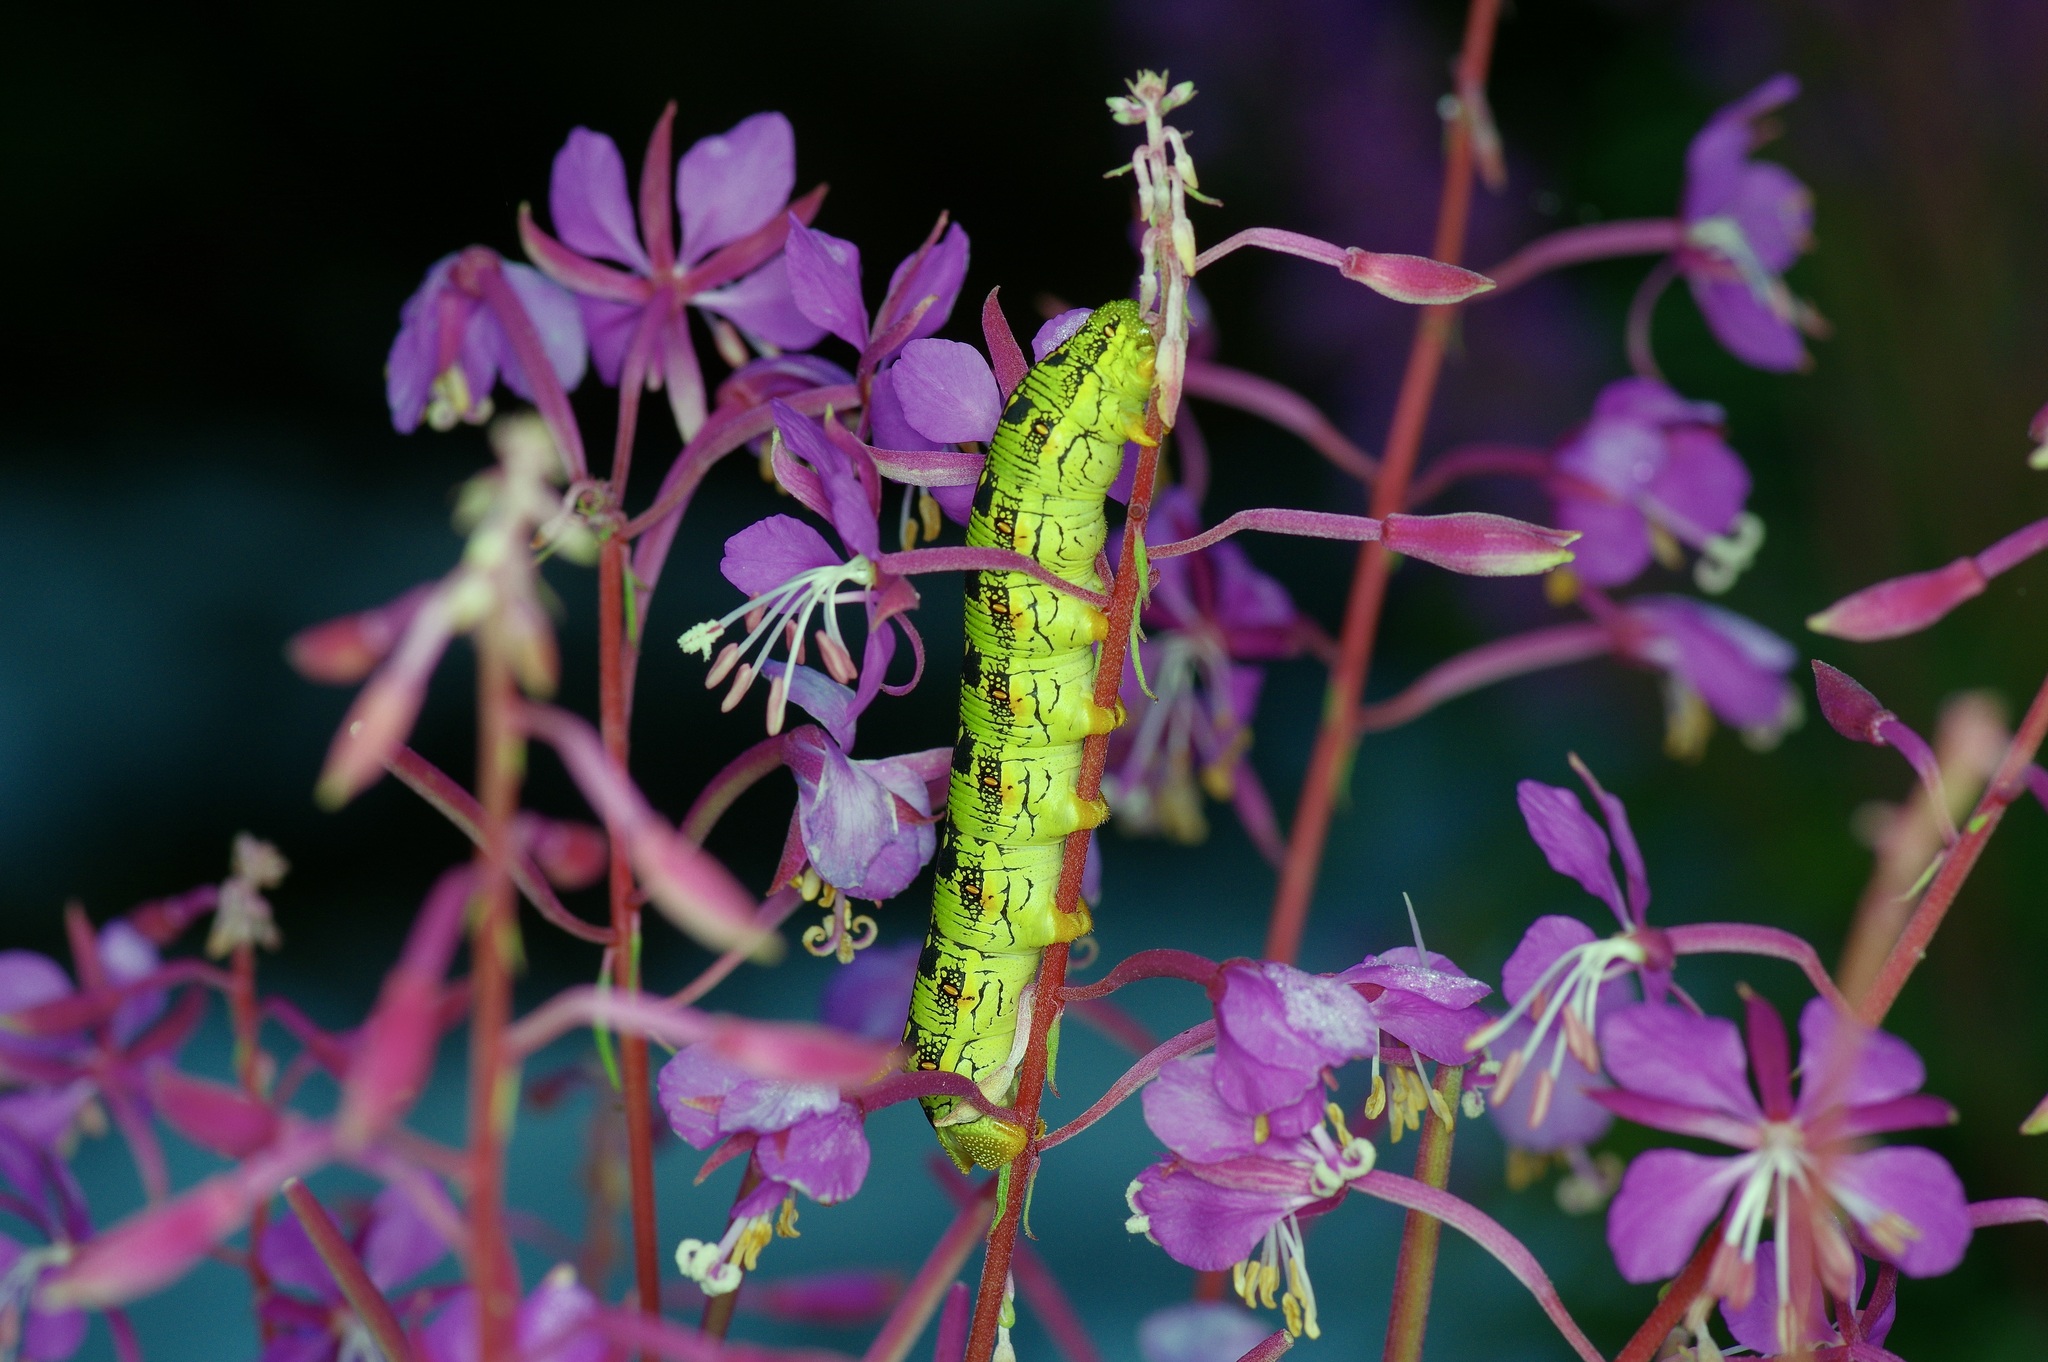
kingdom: Animalia
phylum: Arthropoda
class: Insecta
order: Lepidoptera
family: Sphingidae
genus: Hyles
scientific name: Hyles lineata
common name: White-lined sphinx
